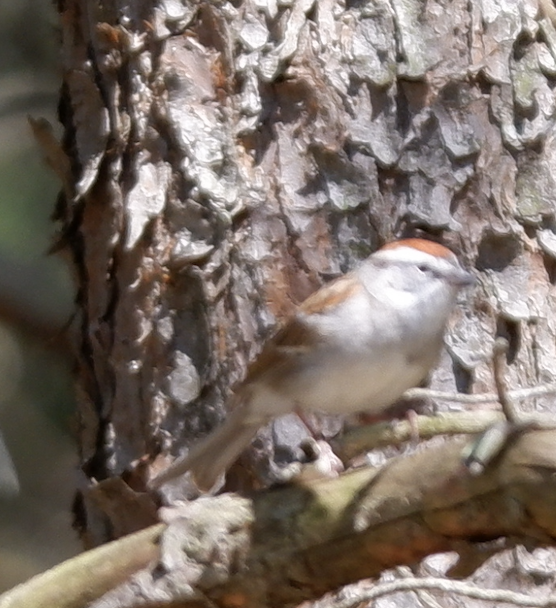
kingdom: Animalia
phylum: Chordata
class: Aves
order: Passeriformes
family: Passerellidae
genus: Spizella
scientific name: Spizella passerina
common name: Chipping sparrow
